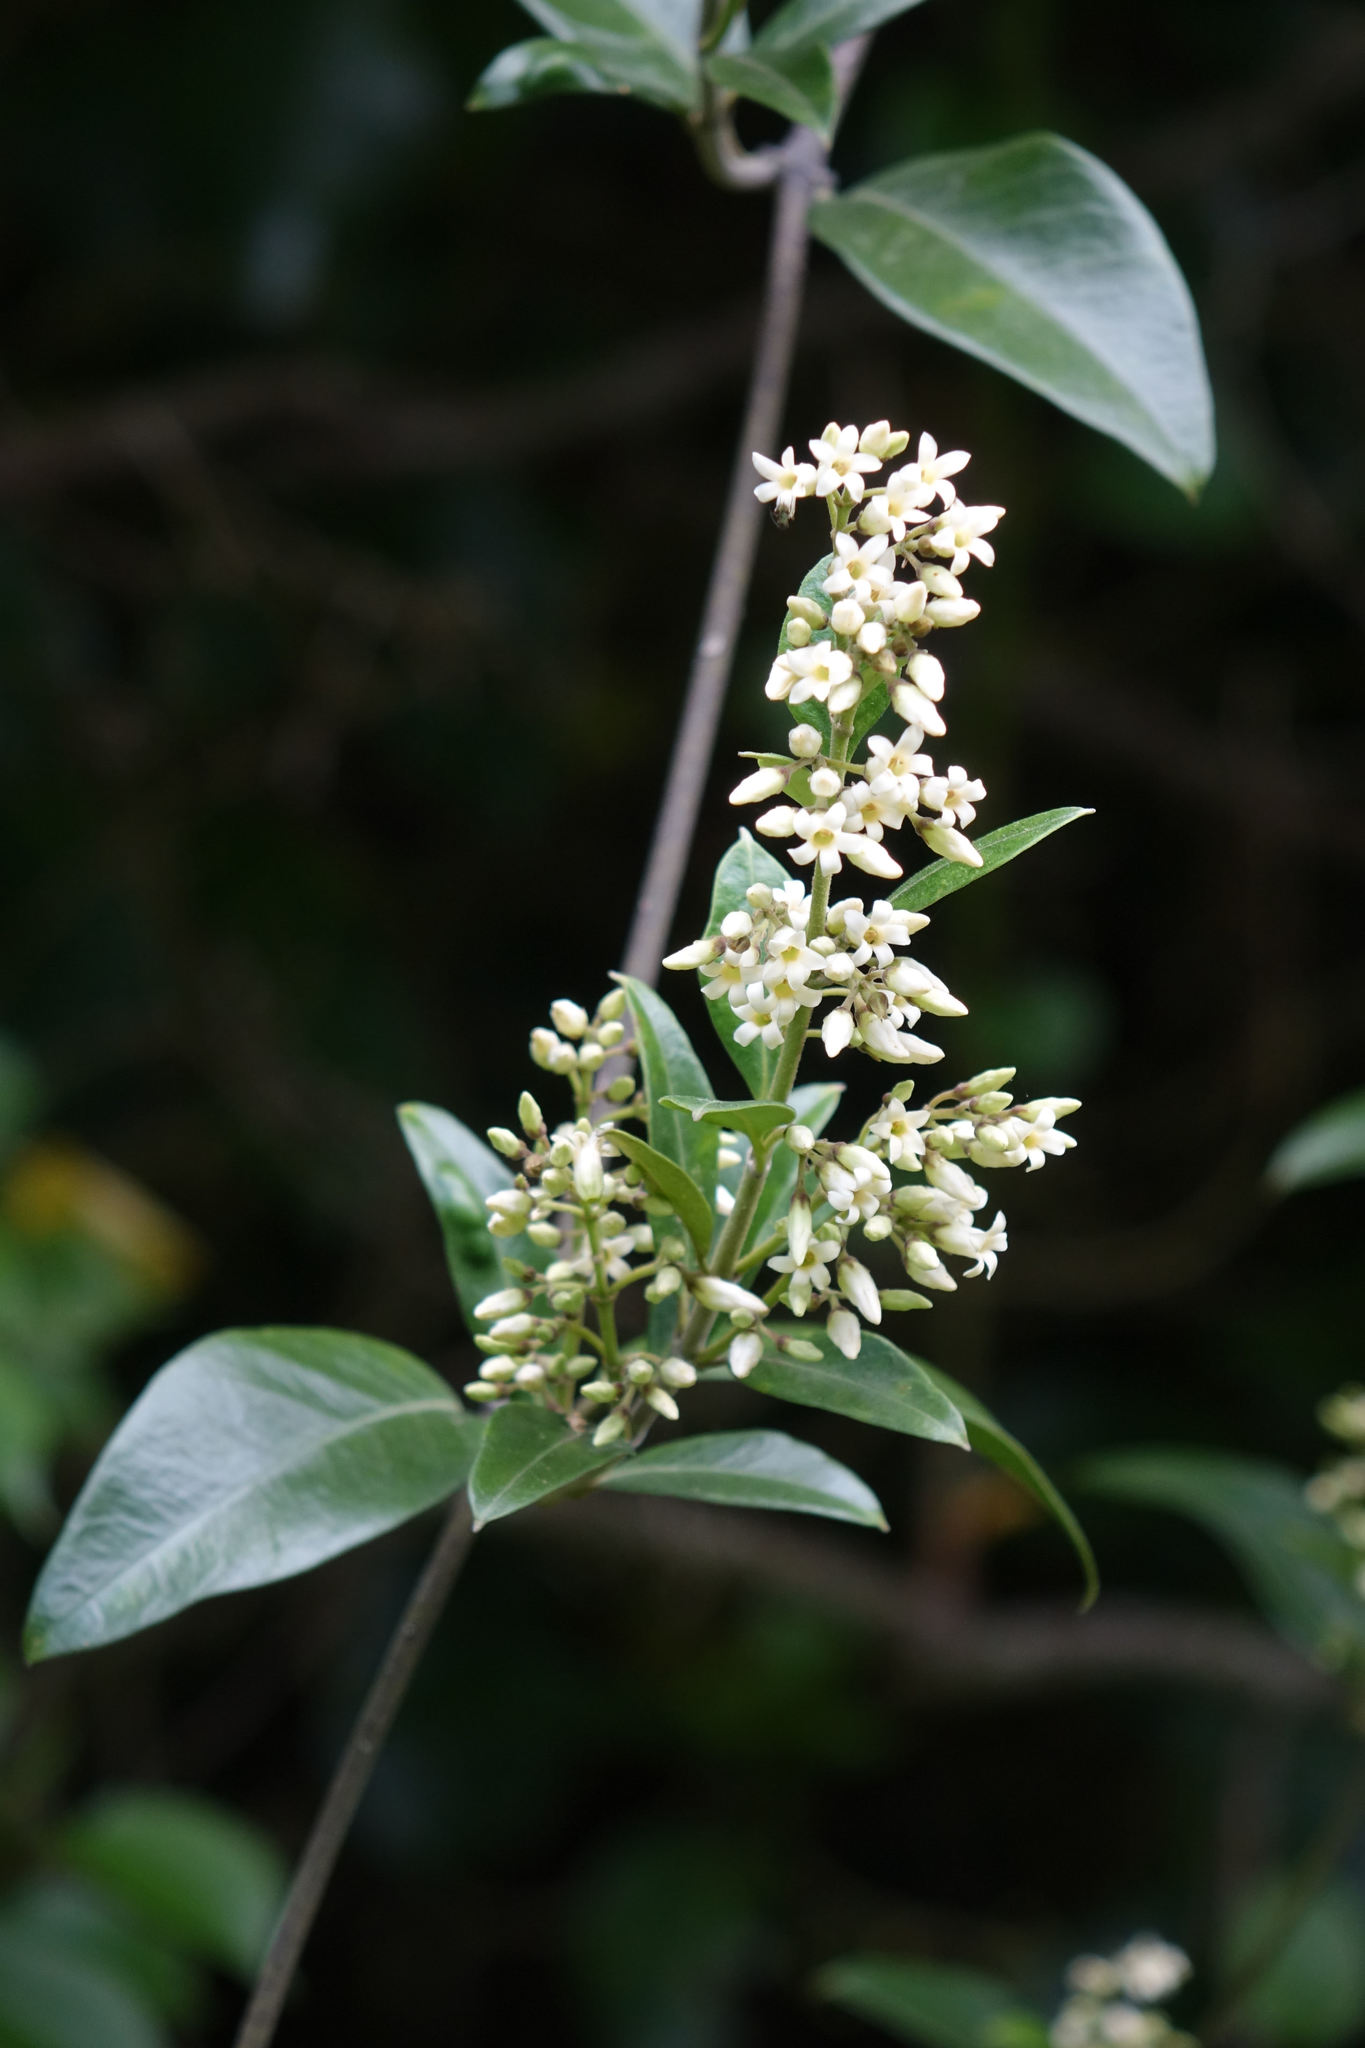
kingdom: Plantae
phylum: Tracheophyta
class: Magnoliopsida
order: Gentianales
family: Apocynaceae
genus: Parsonsia
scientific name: Parsonsia heterophylla
